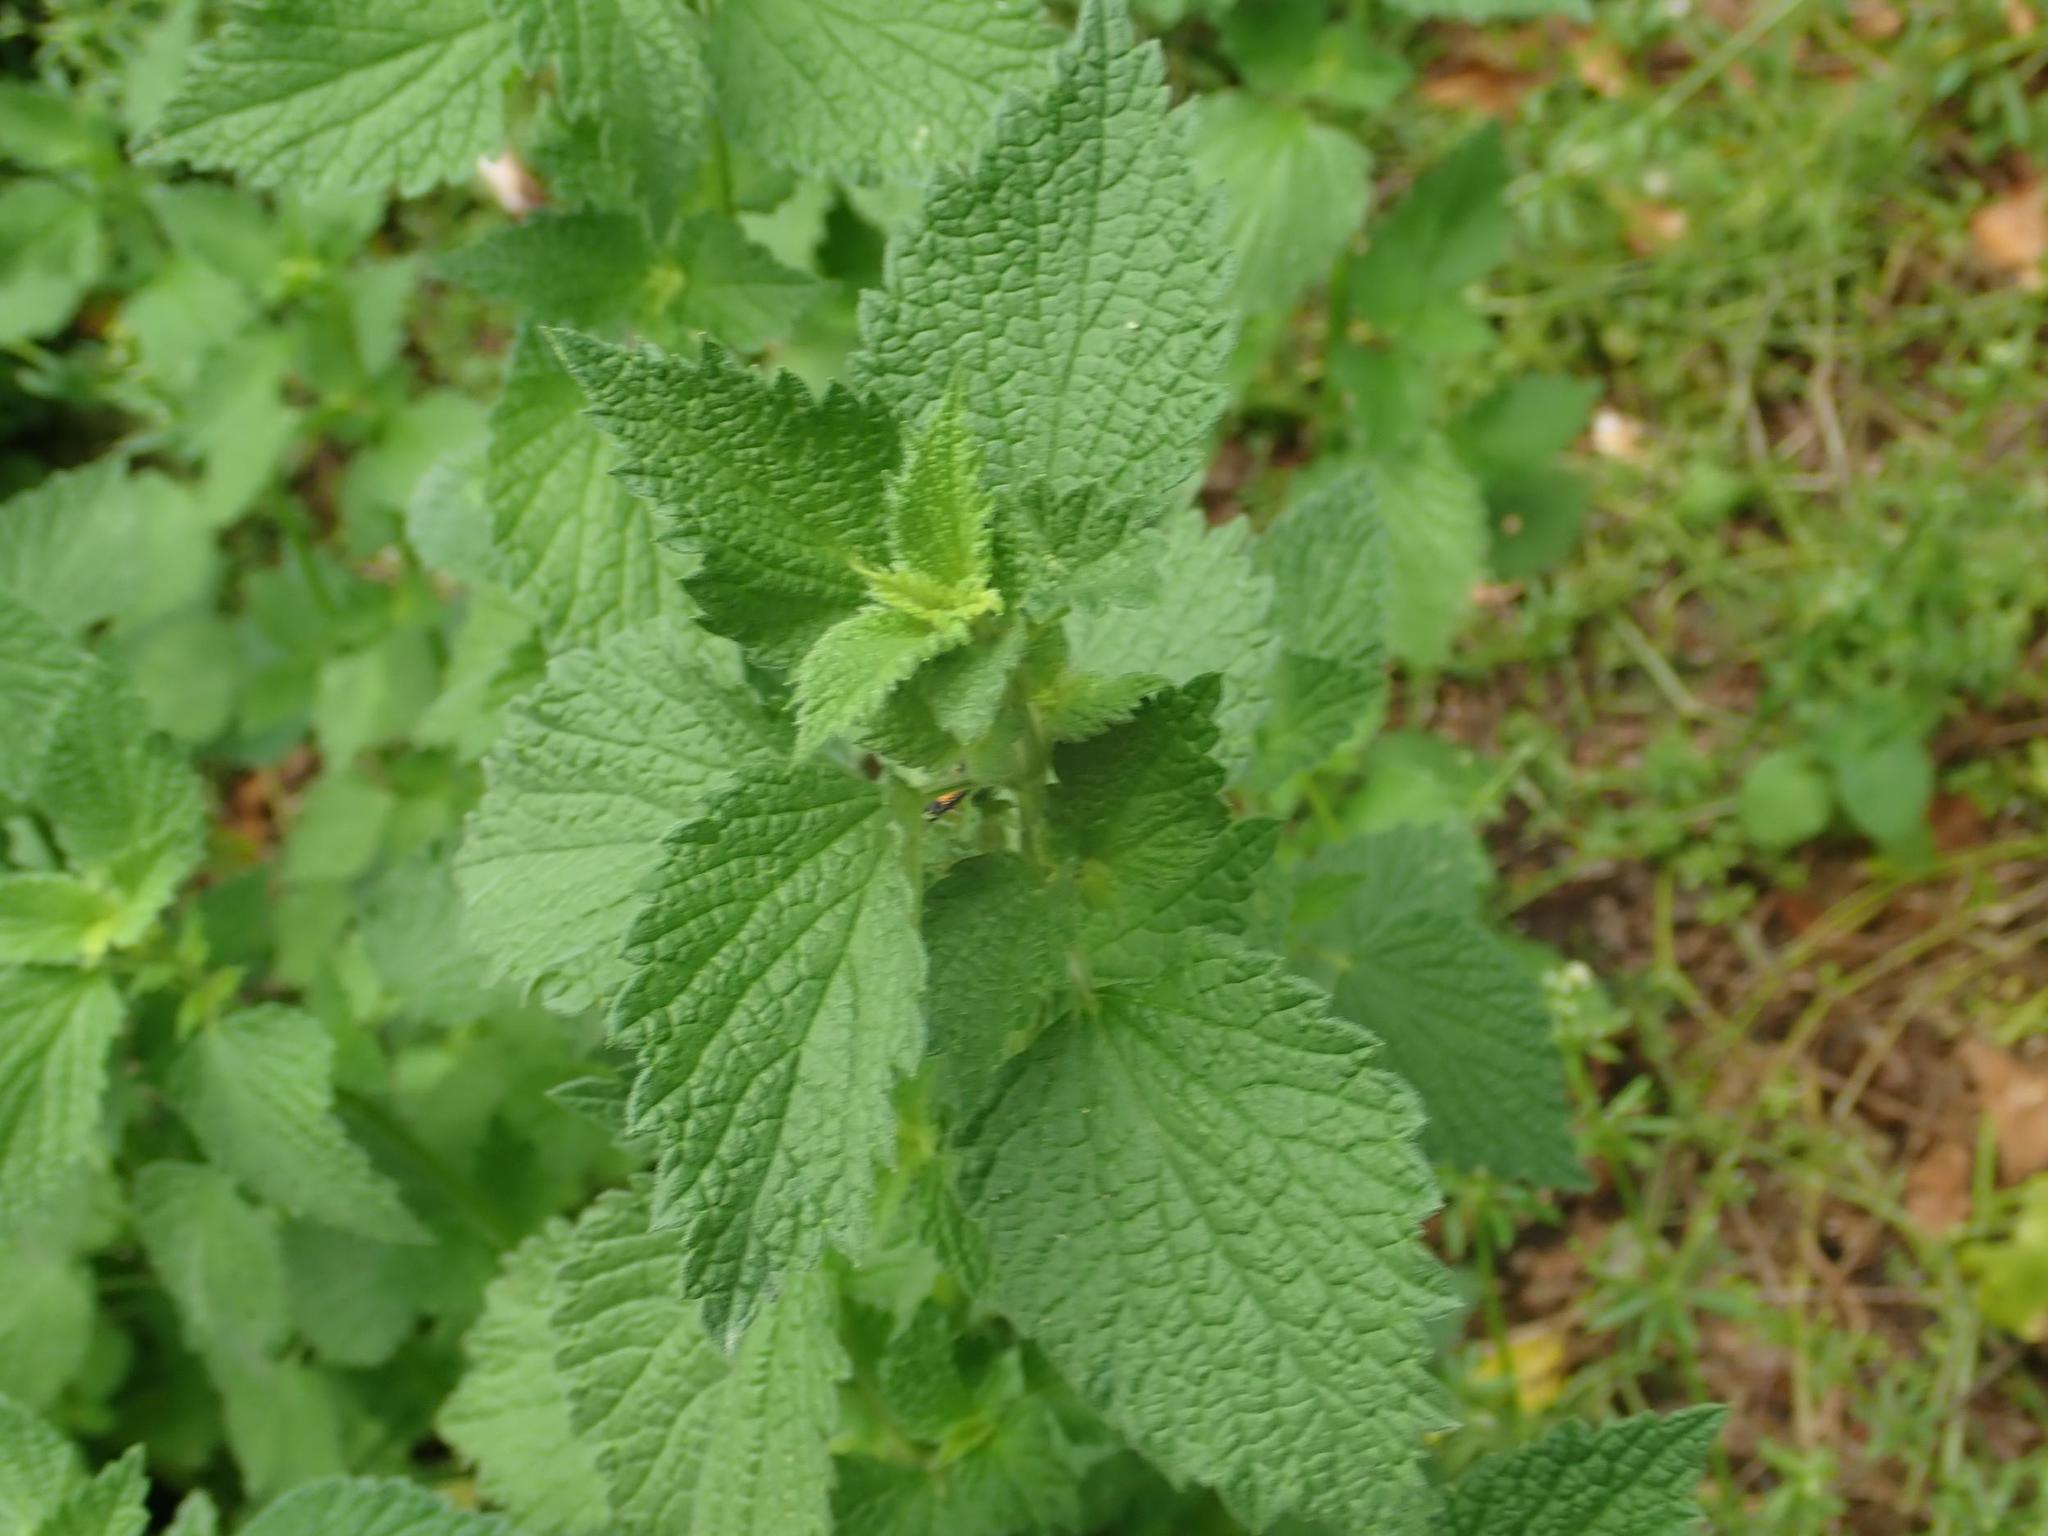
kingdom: Plantae
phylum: Tracheophyta
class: Magnoliopsida
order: Lamiales
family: Lamiaceae
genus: Ballota
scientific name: Ballota nigra
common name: Black horehound
